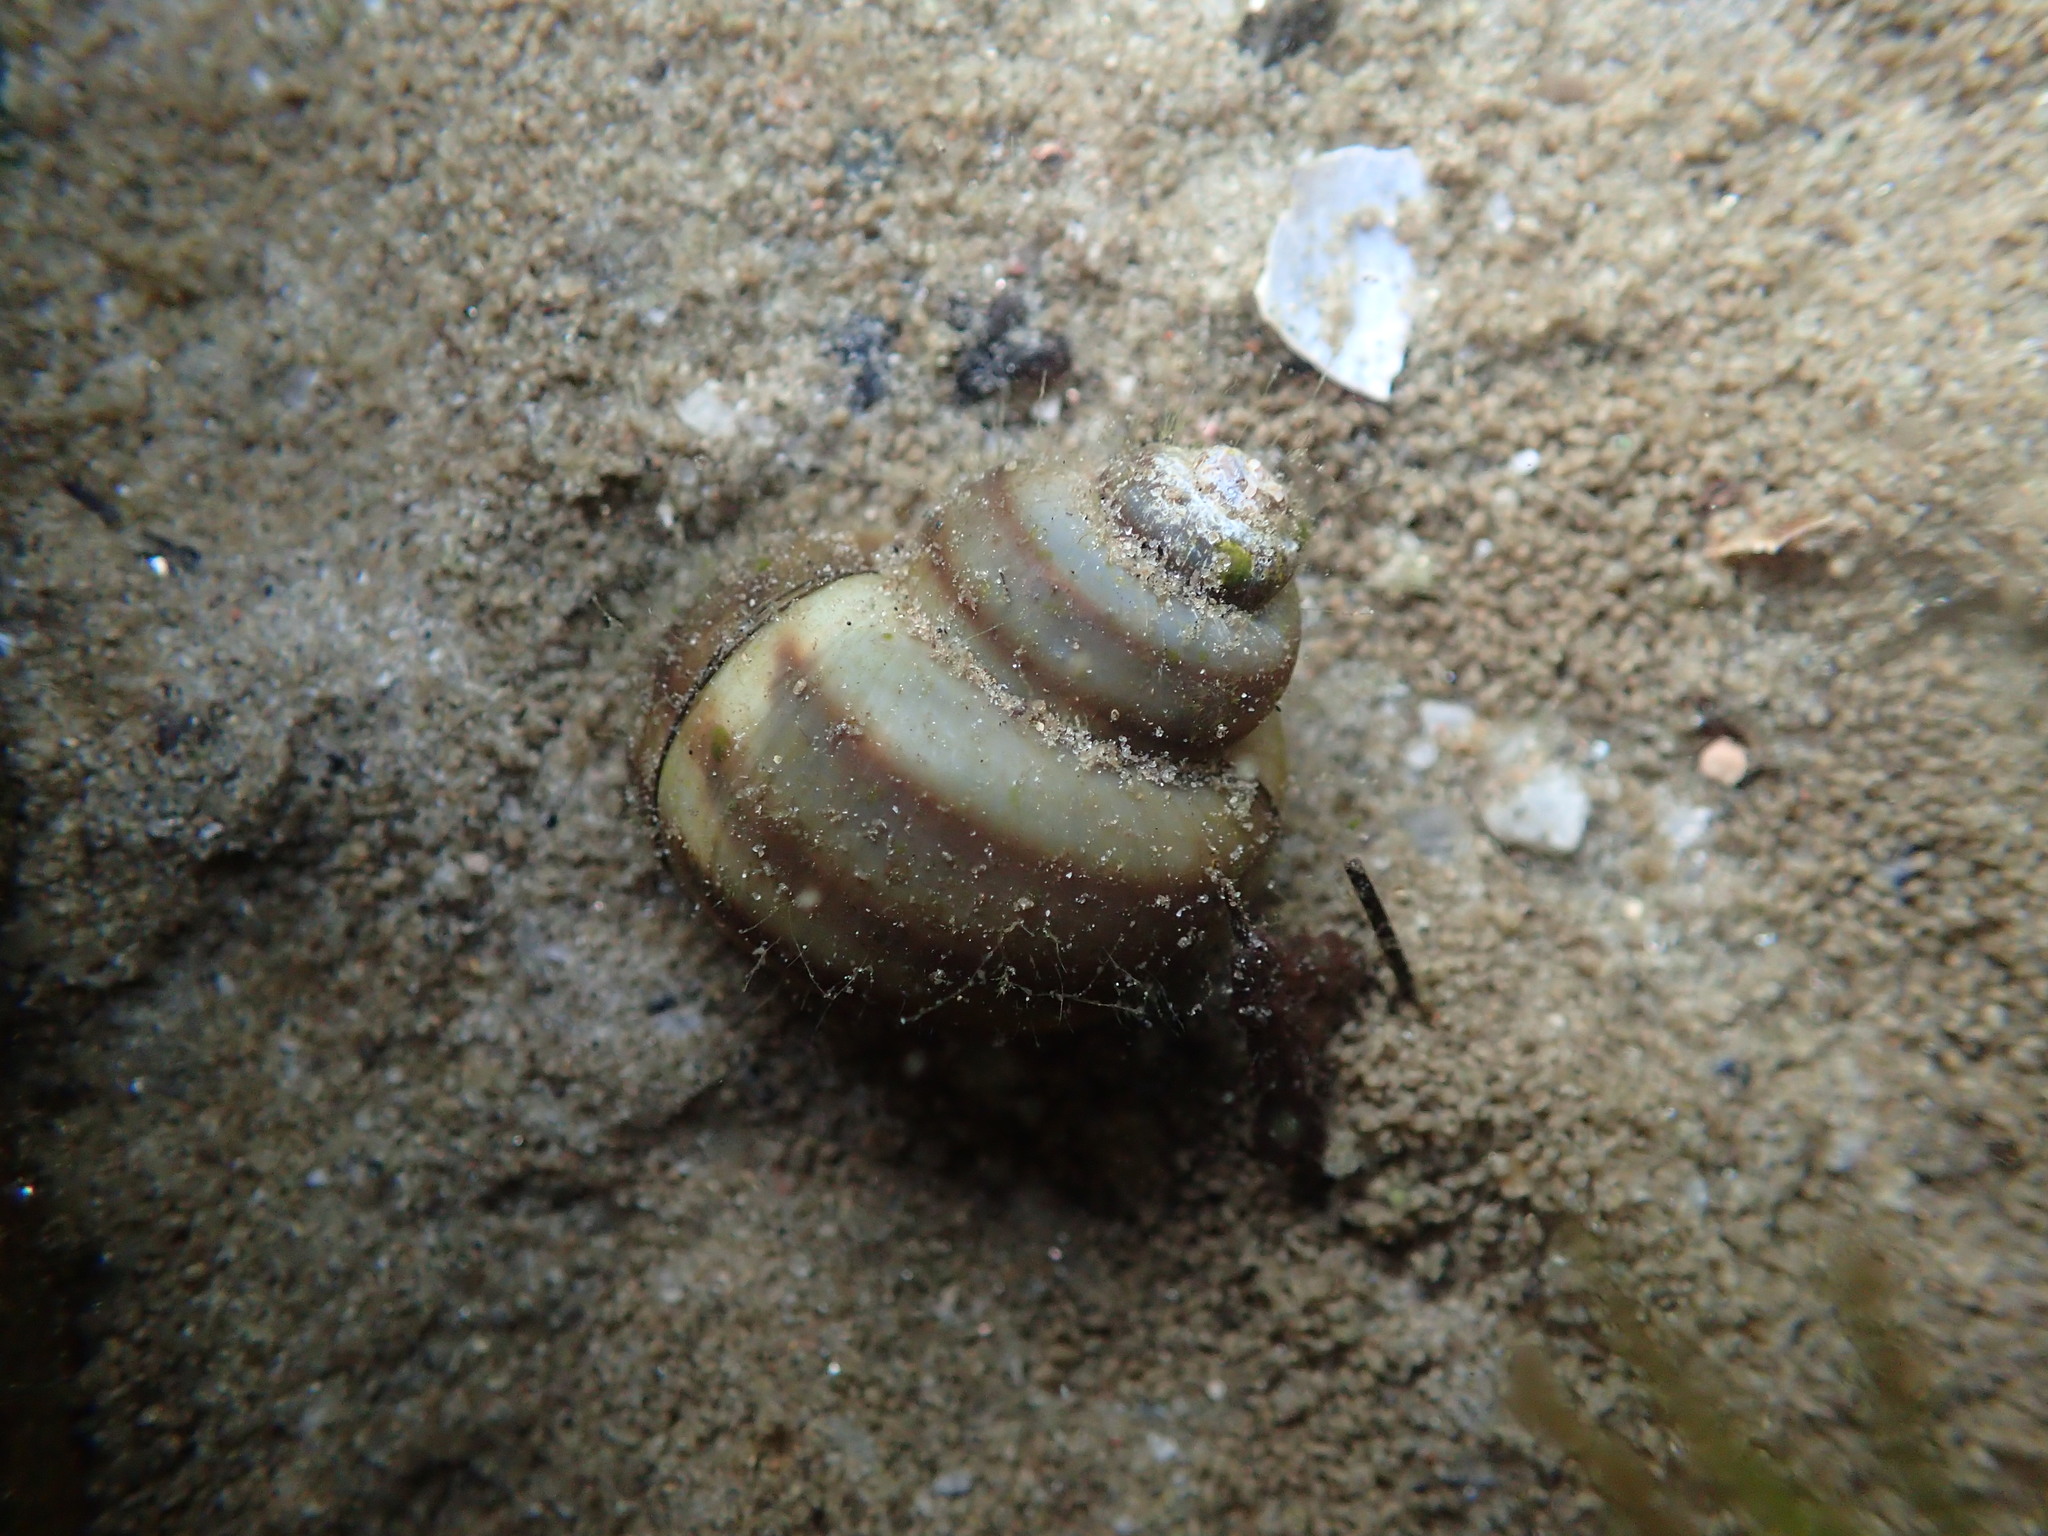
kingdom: Animalia
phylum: Mollusca
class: Gastropoda
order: Architaenioglossa
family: Viviparidae
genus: Callinina
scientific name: Callinina georgiana
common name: Banded mystery snail
